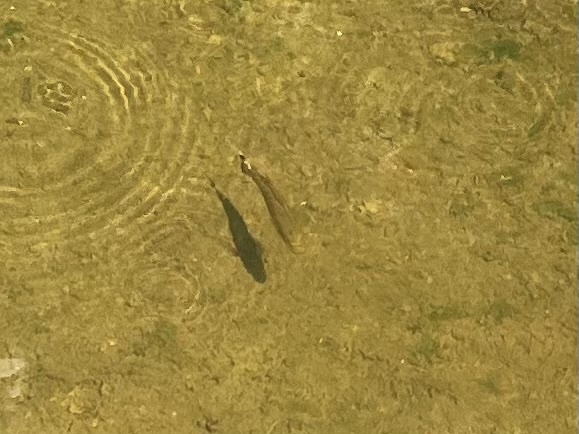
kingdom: Animalia
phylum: Chordata
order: Perciformes
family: Centrarchidae
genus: Micropterus
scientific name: Micropterus dolomieu
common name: Smallmouth bass
